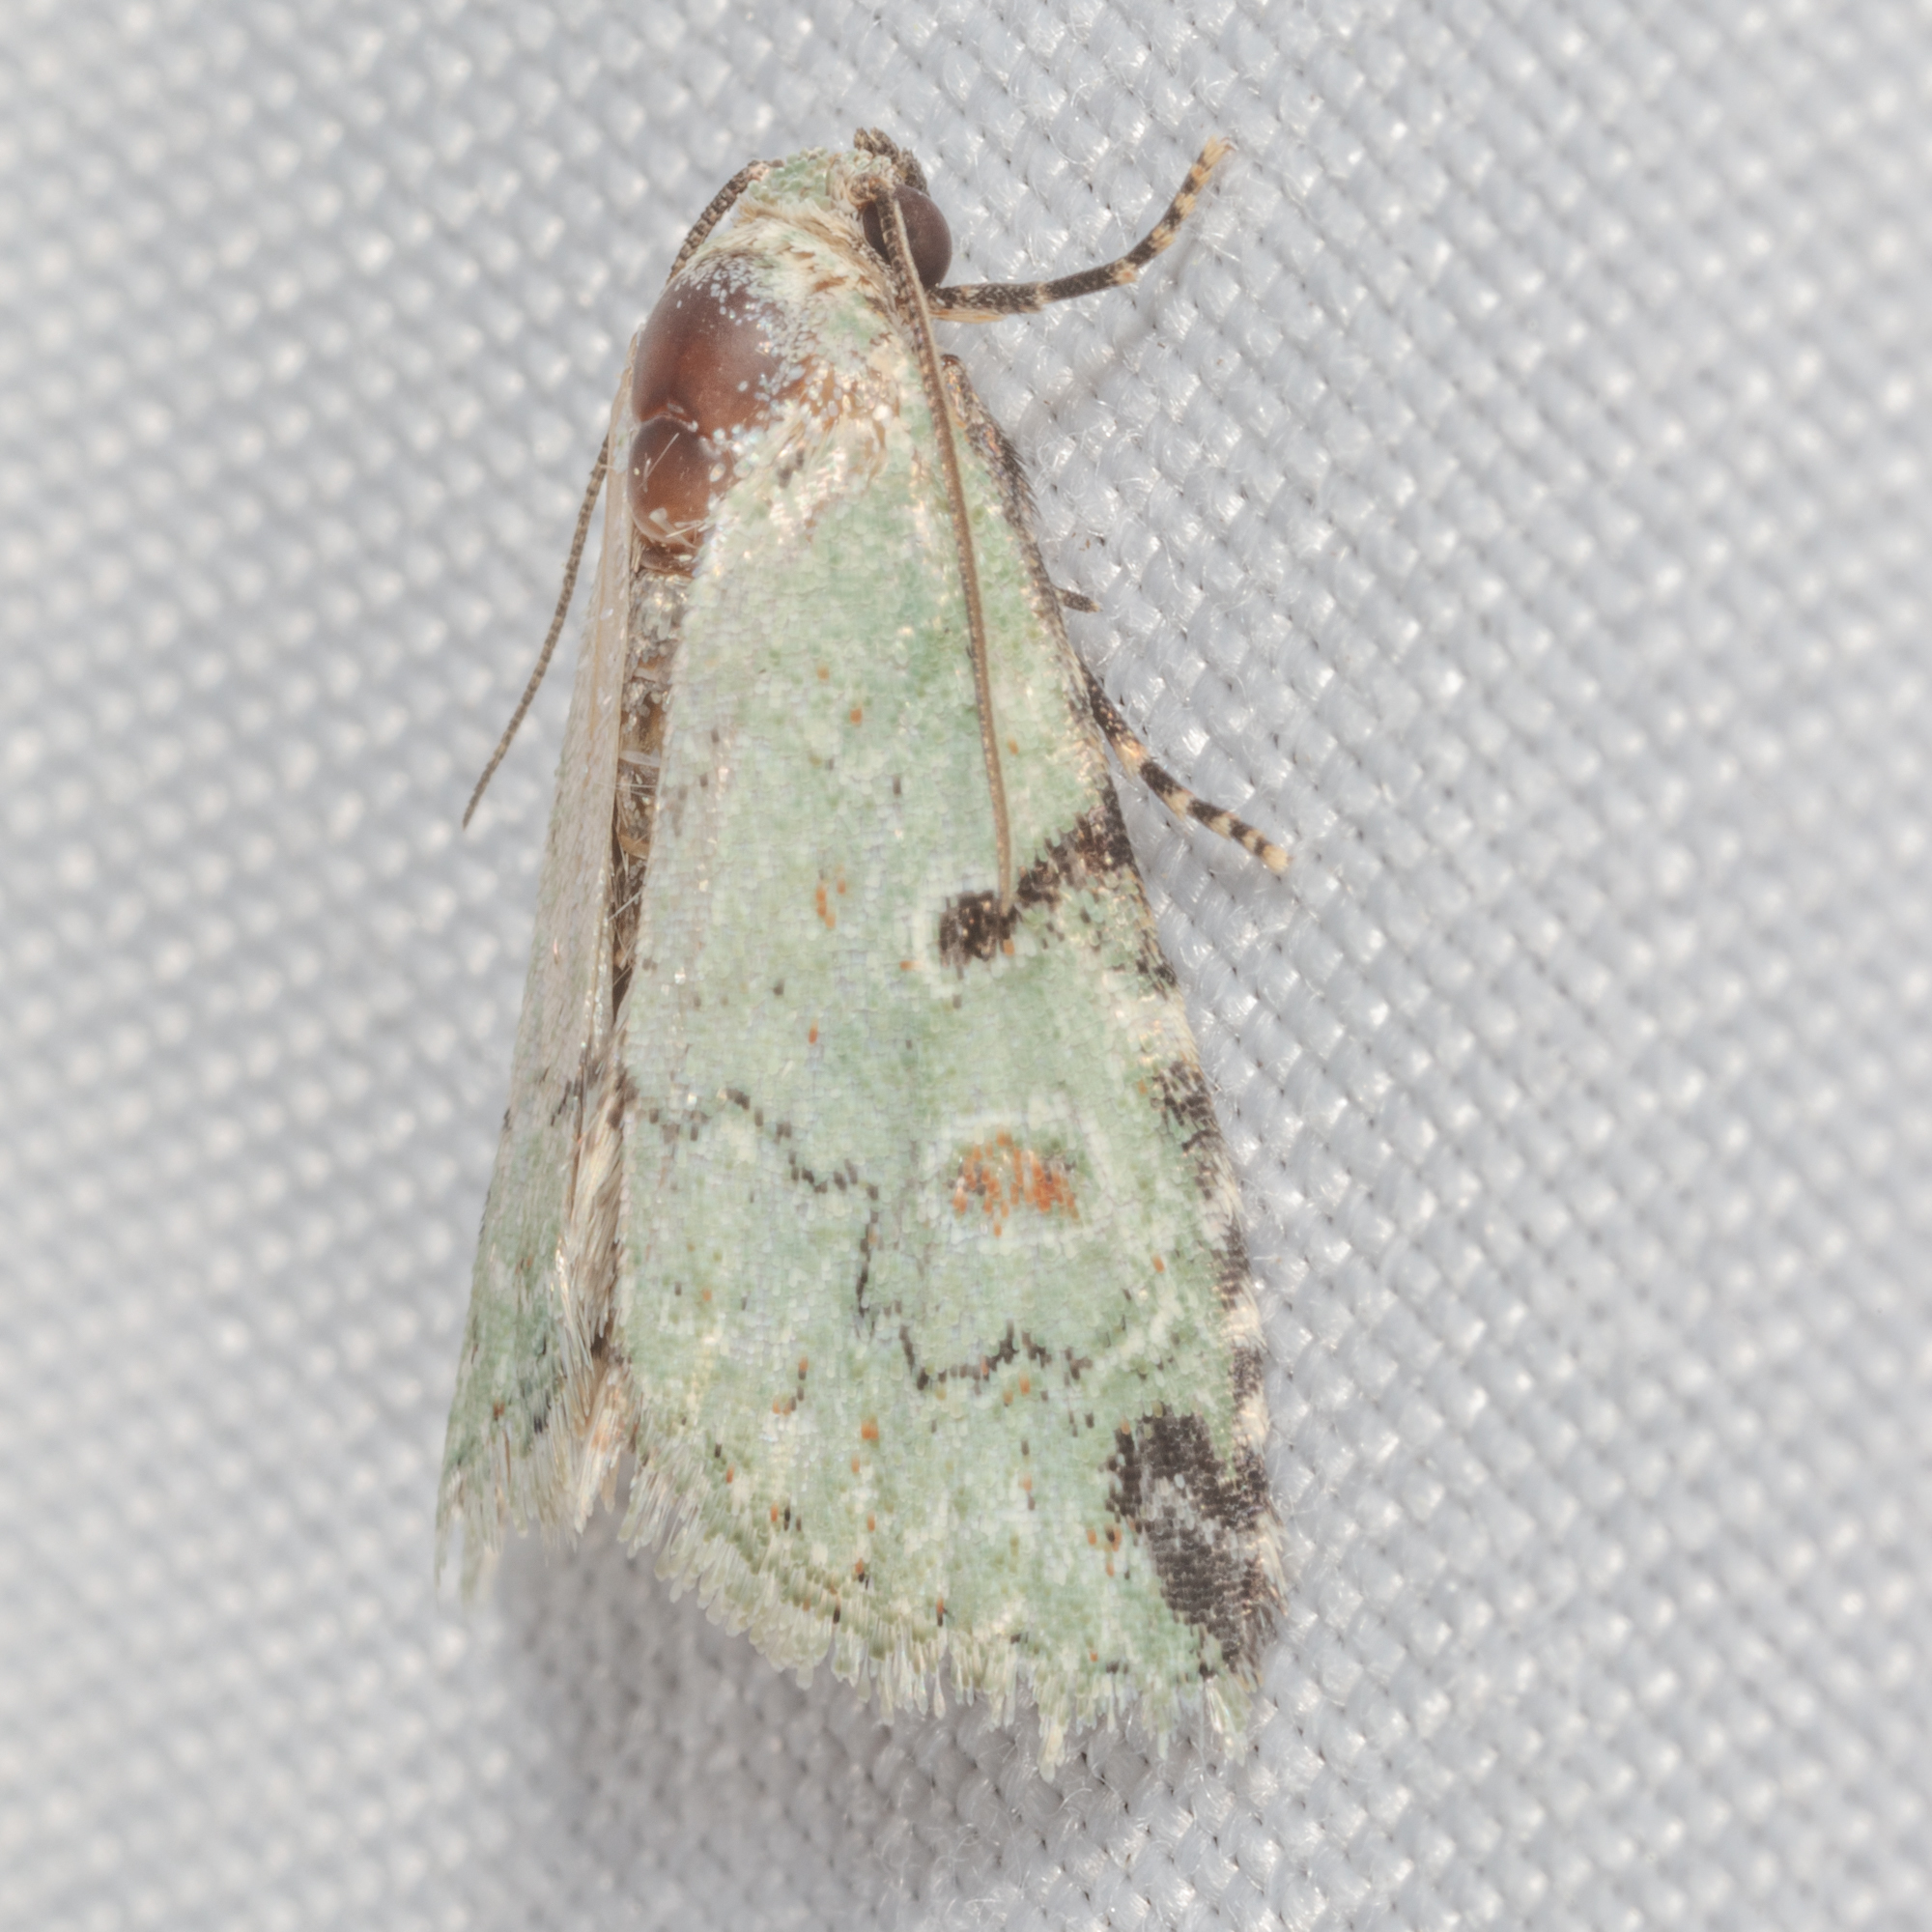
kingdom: Animalia
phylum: Arthropoda
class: Insecta
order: Lepidoptera
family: Noctuidae
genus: Maliattha
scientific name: Maliattha concinnimacula
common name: Red-spotted glyph
